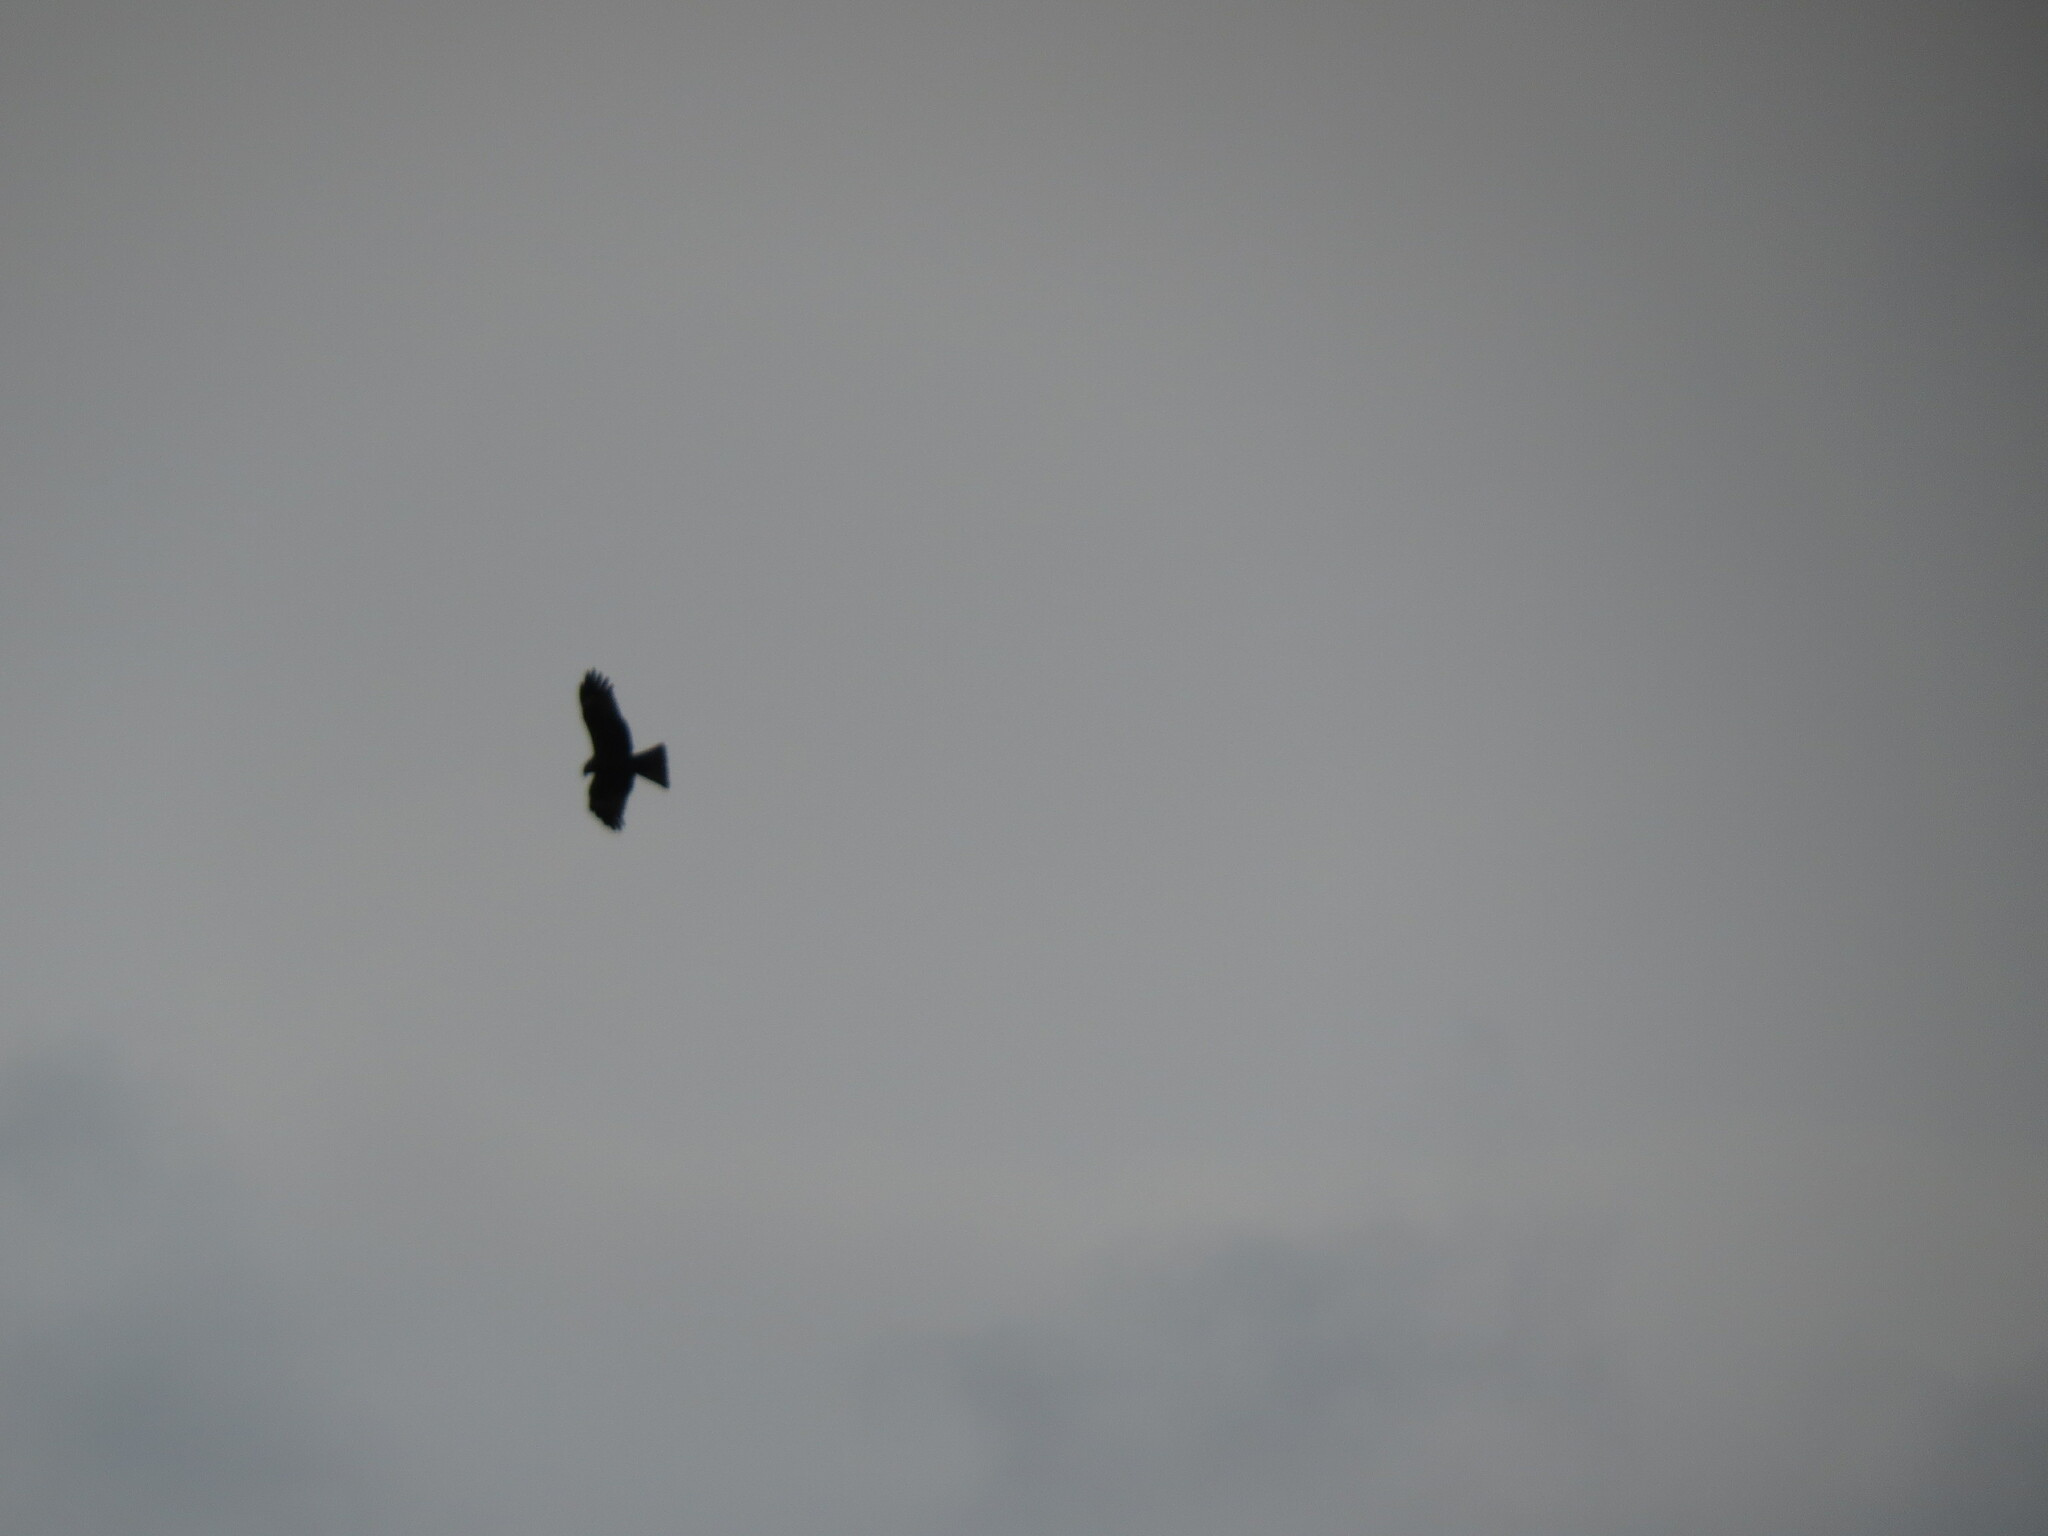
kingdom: Animalia
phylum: Chordata
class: Aves
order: Accipitriformes
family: Accipitridae
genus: Milvus
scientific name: Milvus migrans
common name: Black kite
